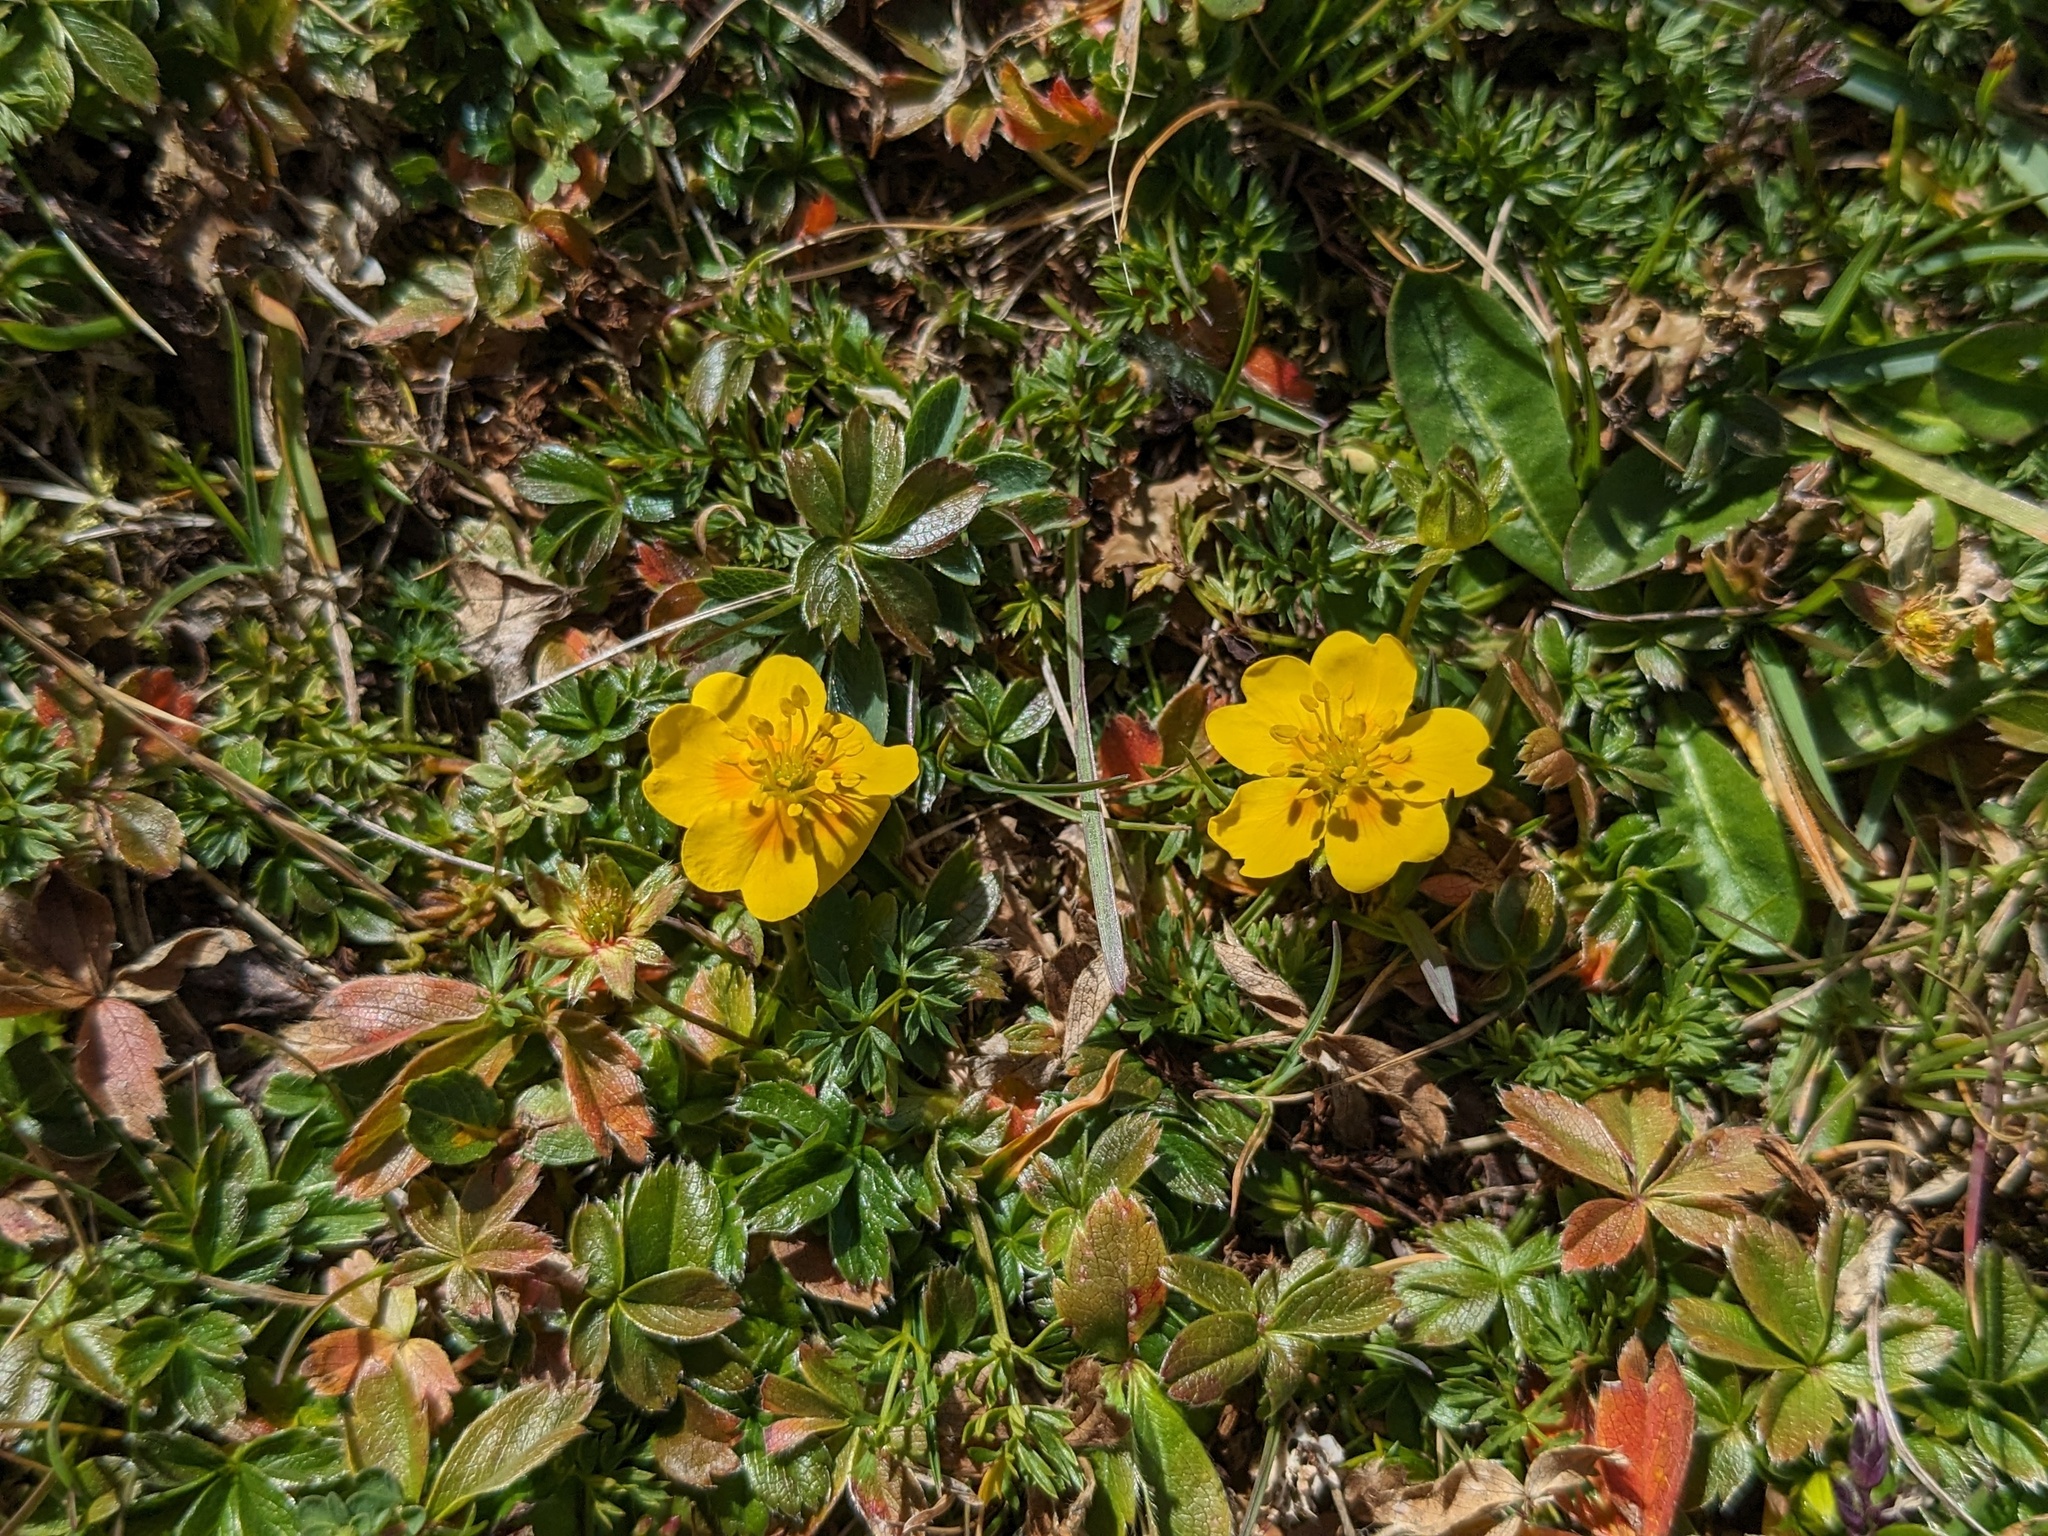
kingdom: Plantae
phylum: Tracheophyta
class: Magnoliopsida
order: Rosales
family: Rosaceae
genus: Potentilla
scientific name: Potentilla aurea
